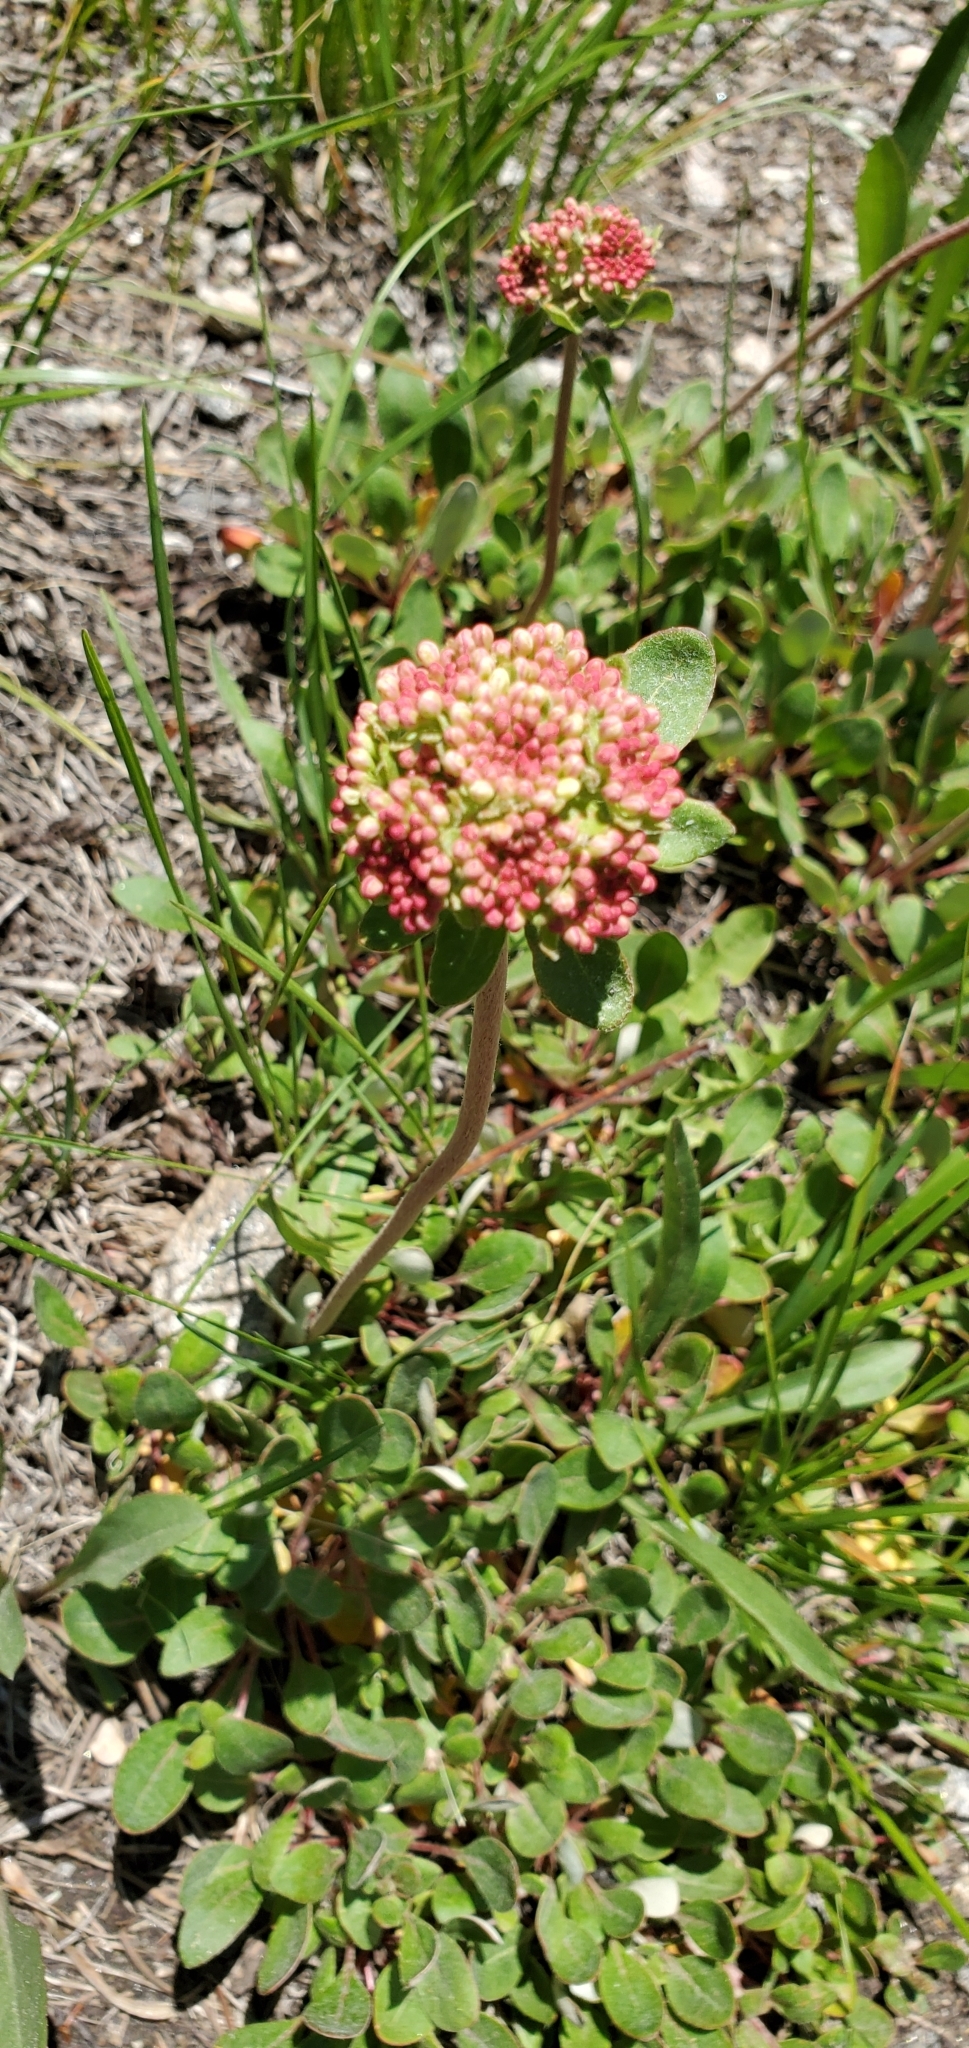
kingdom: Plantae
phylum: Tracheophyta
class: Magnoliopsida
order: Caryophyllales
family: Polygonaceae
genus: Eriogonum
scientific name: Eriogonum umbellatum
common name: Sulfur-buckwheat
